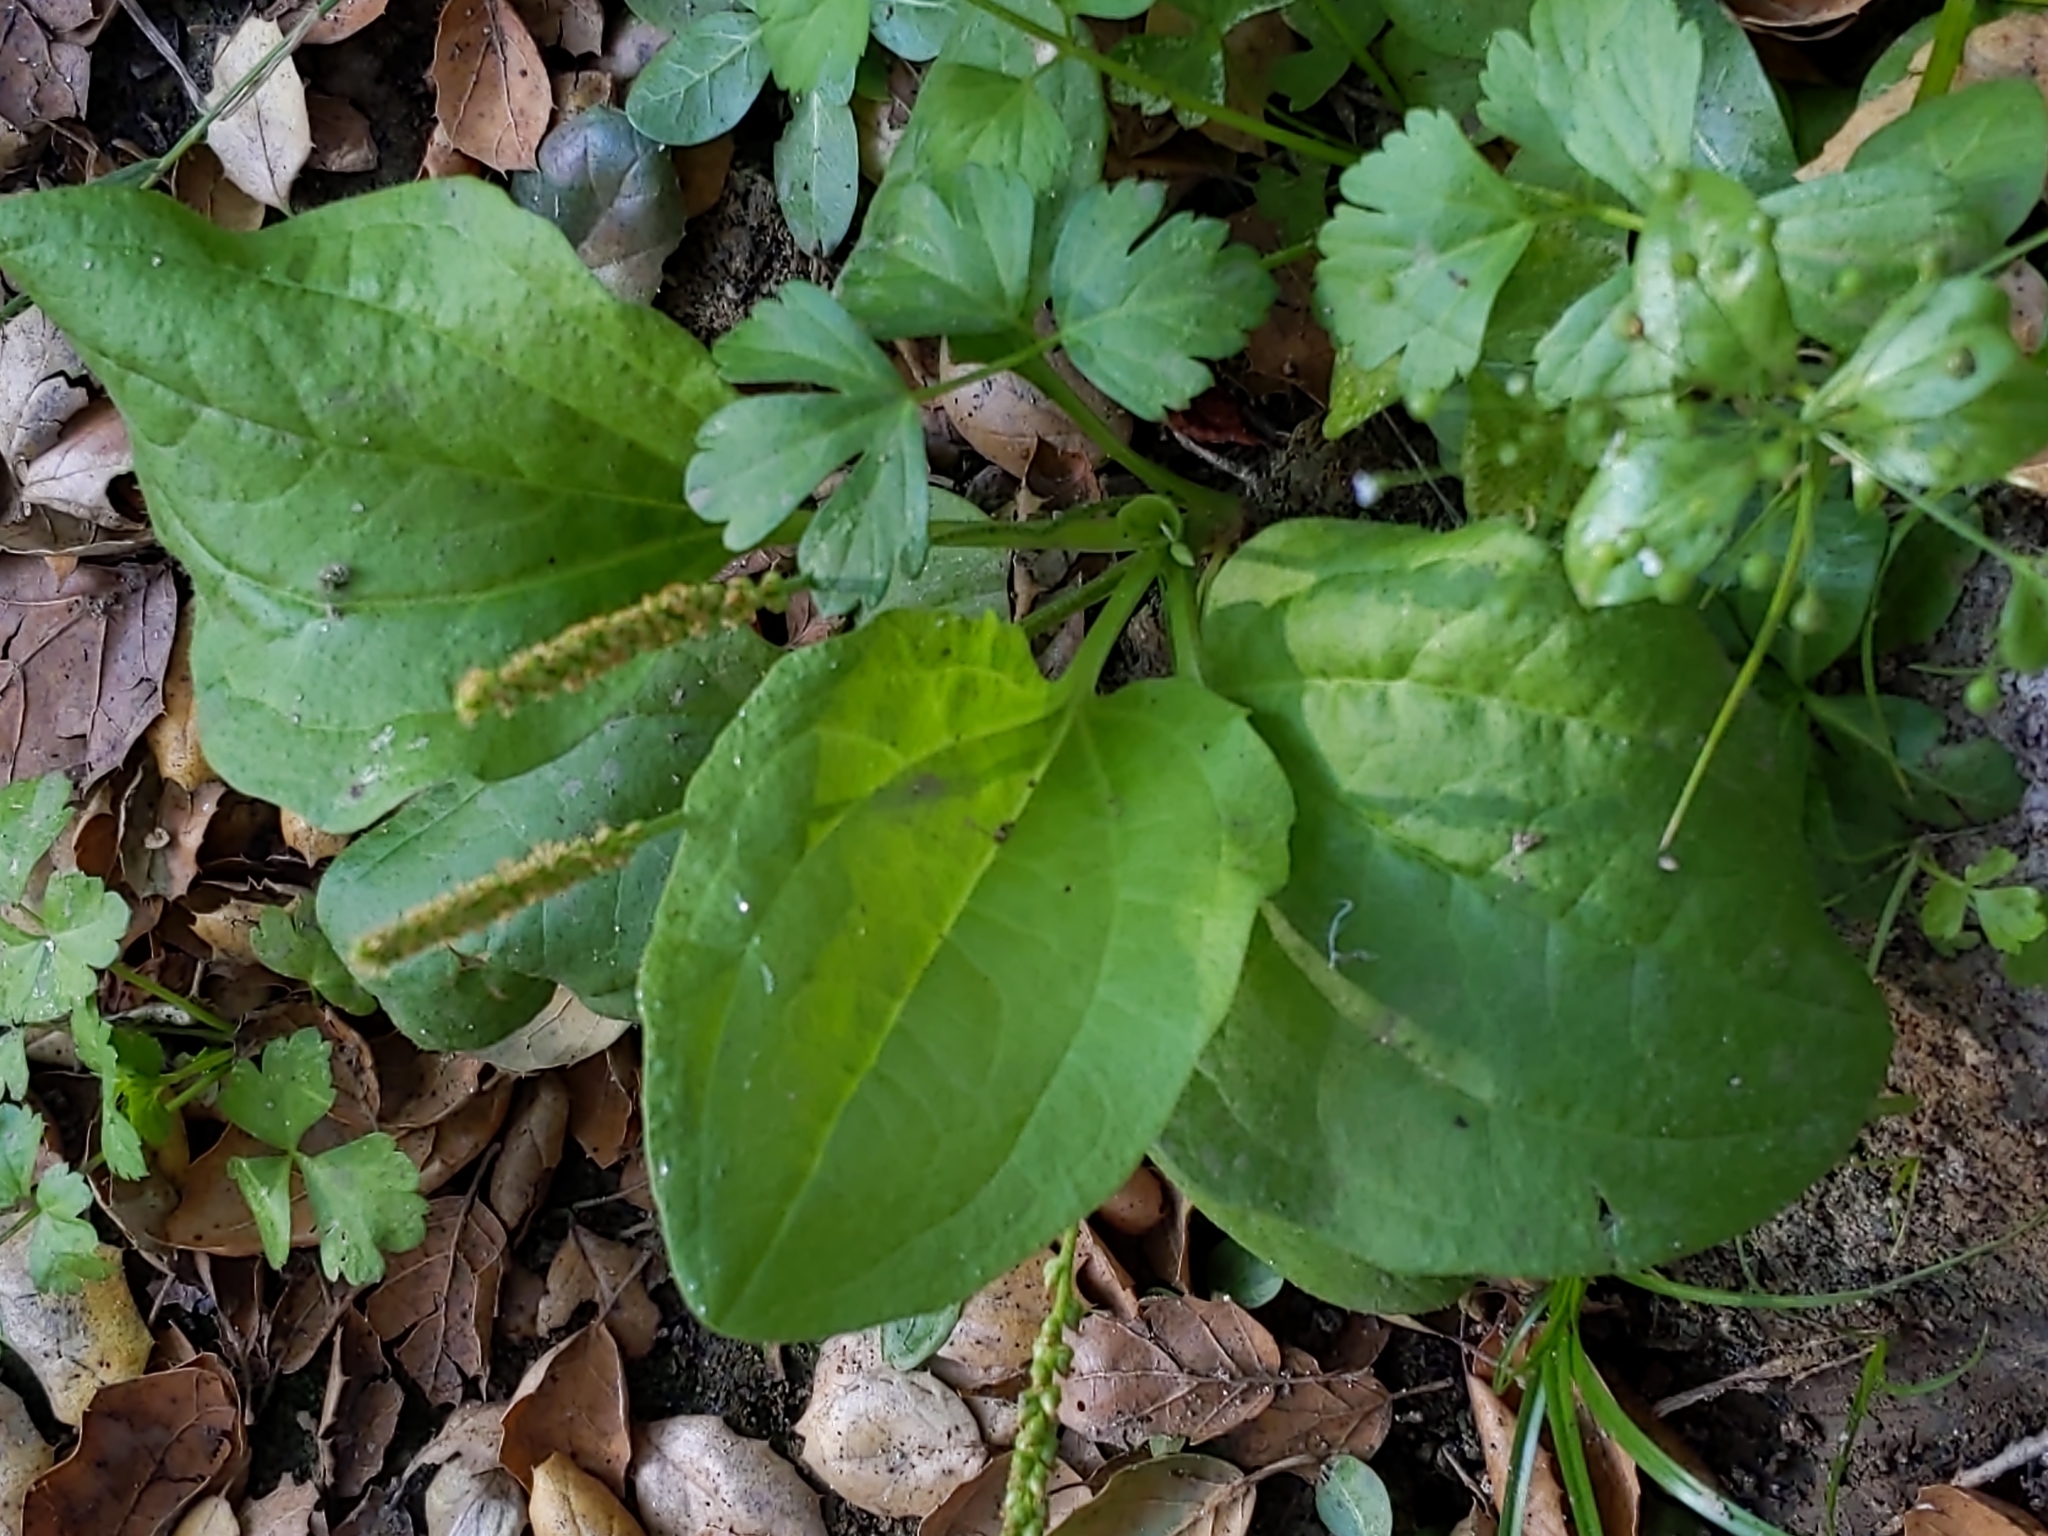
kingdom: Plantae
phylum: Tracheophyta
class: Magnoliopsida
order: Lamiales
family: Plantaginaceae
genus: Plantago
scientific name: Plantago major
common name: Common plantain
